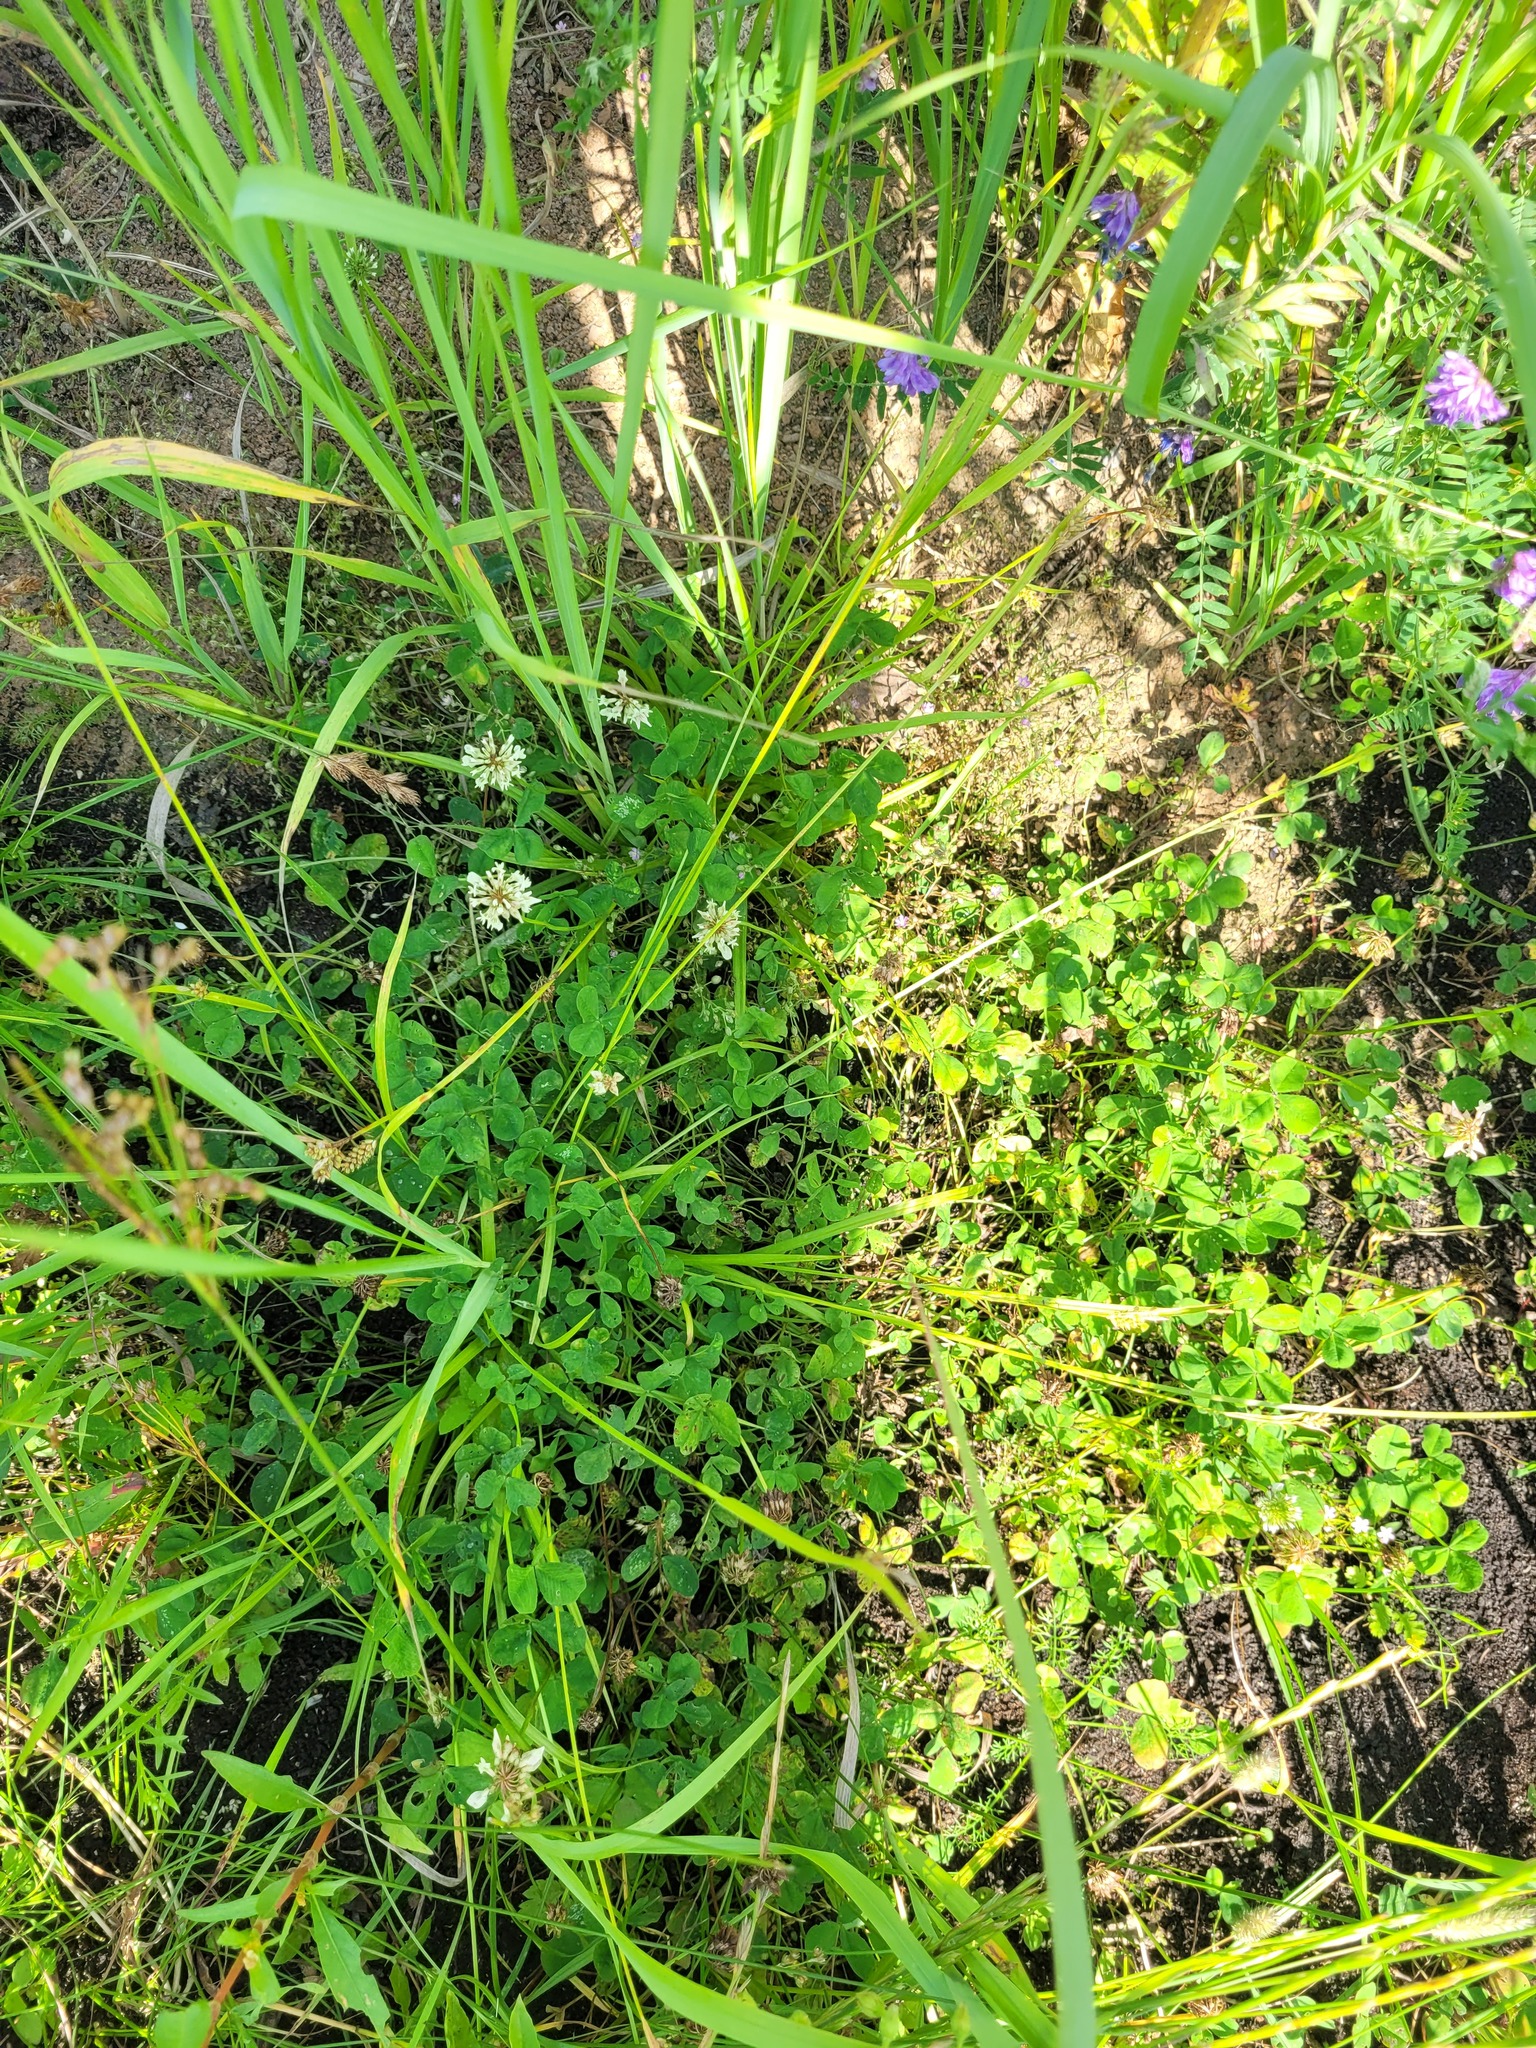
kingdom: Plantae
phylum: Tracheophyta
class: Magnoliopsida
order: Fabales
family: Fabaceae
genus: Trifolium
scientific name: Trifolium repens
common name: White clover
